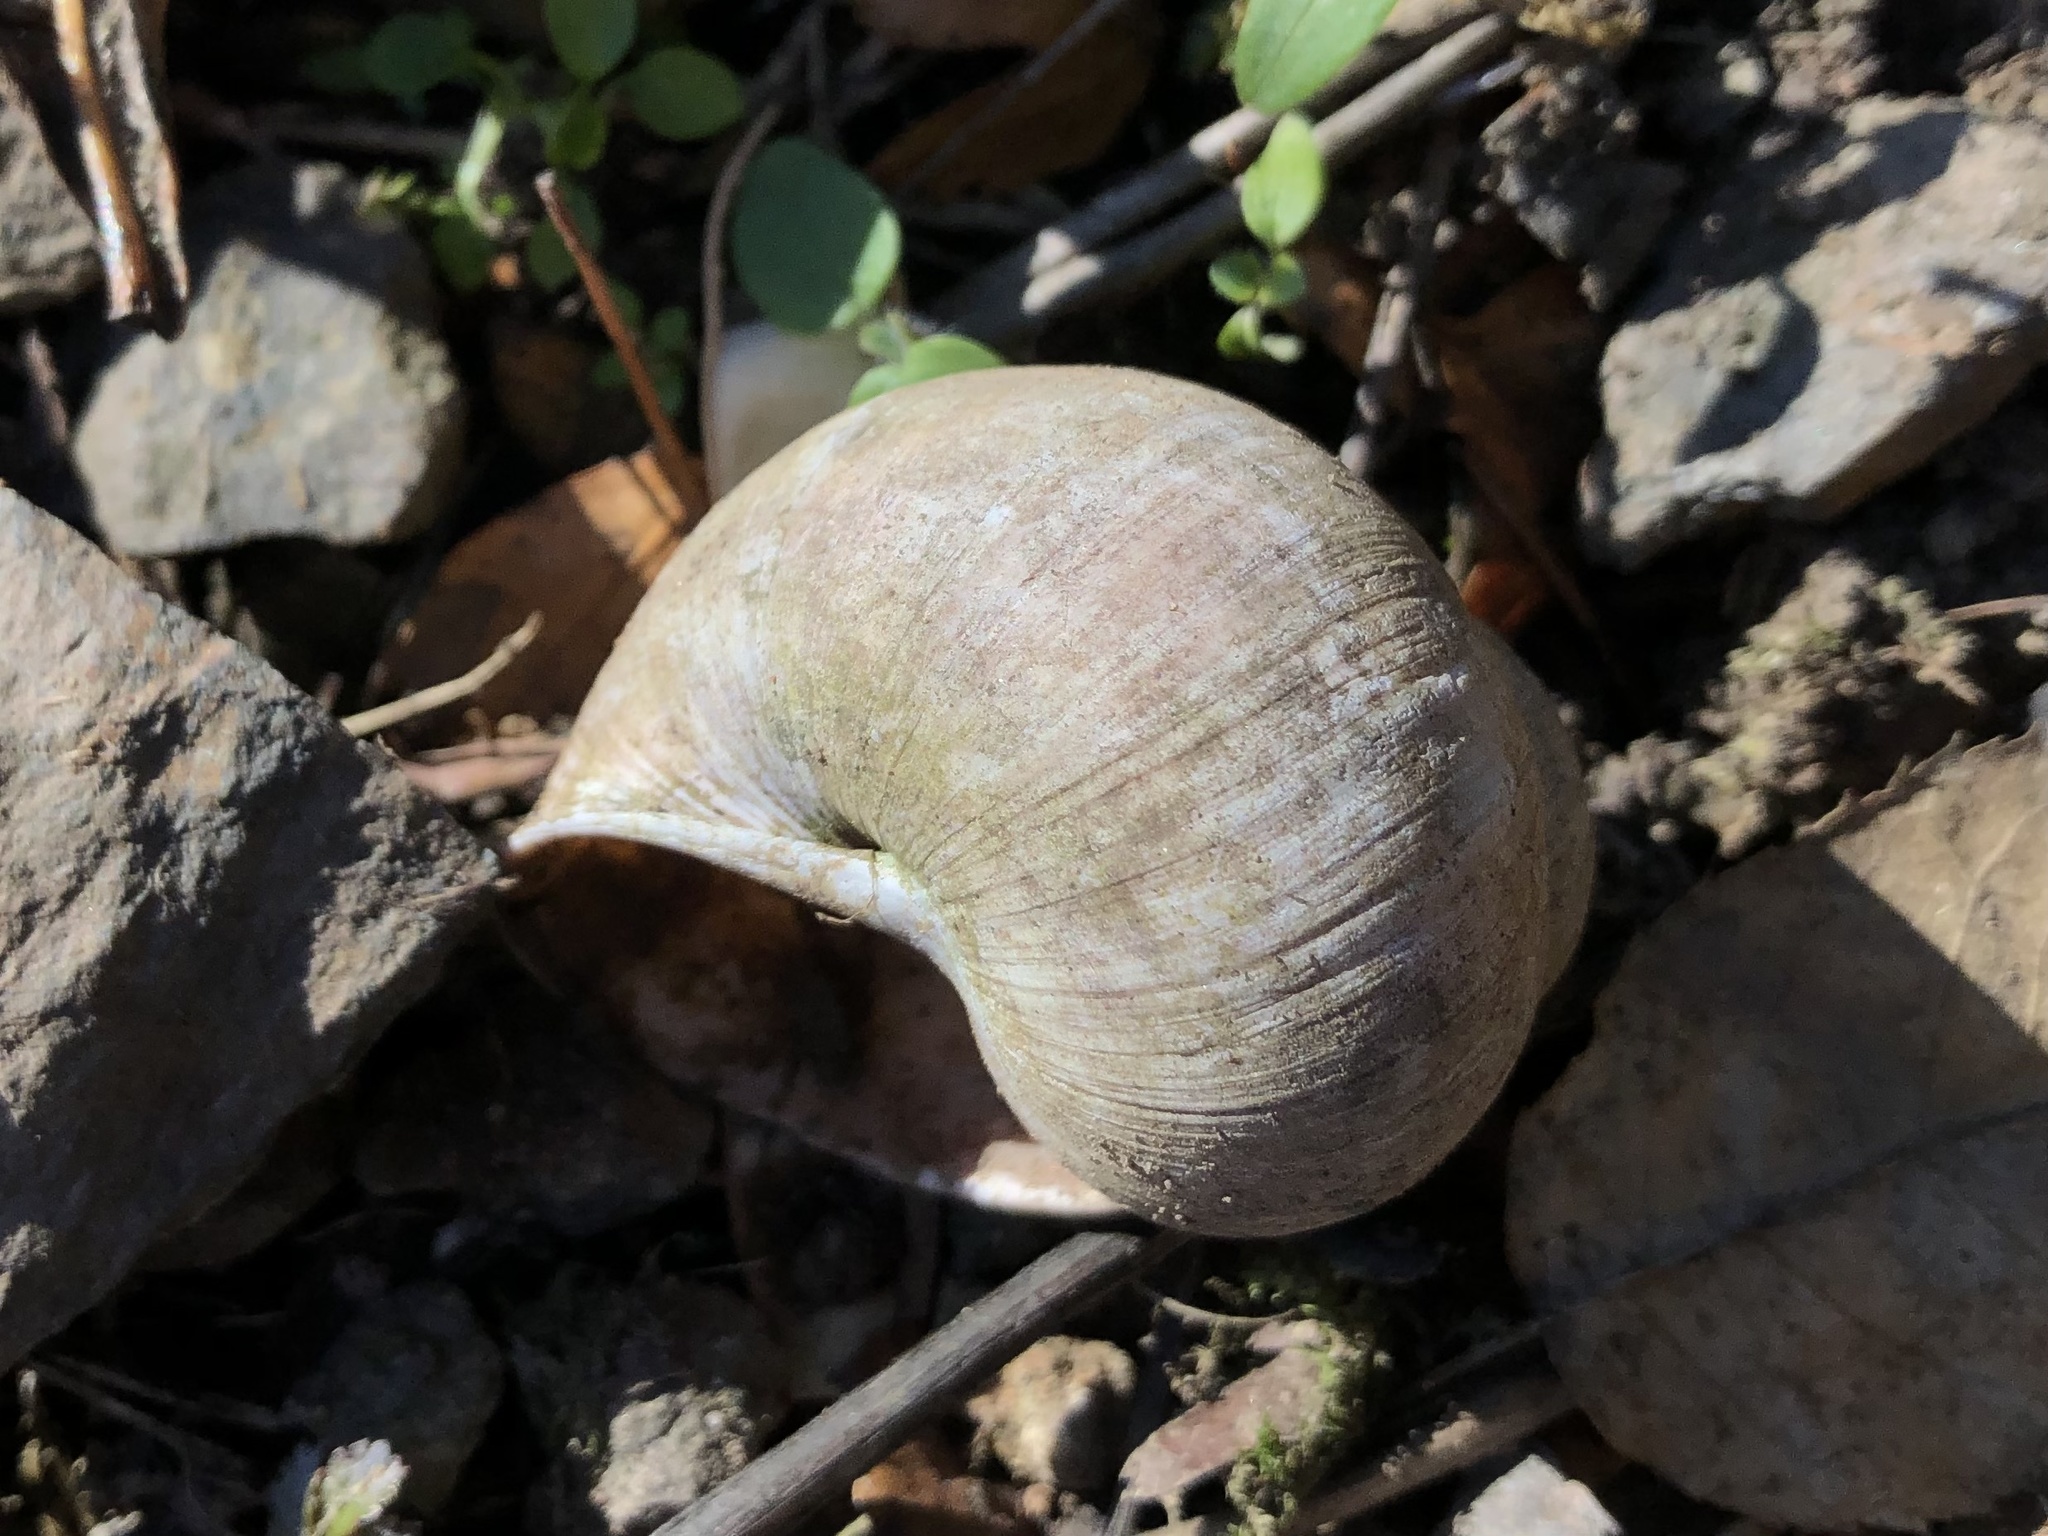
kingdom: Animalia
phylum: Mollusca
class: Gastropoda
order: Stylommatophora
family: Helicidae
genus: Helix
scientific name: Helix pomatia
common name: Roman snail
